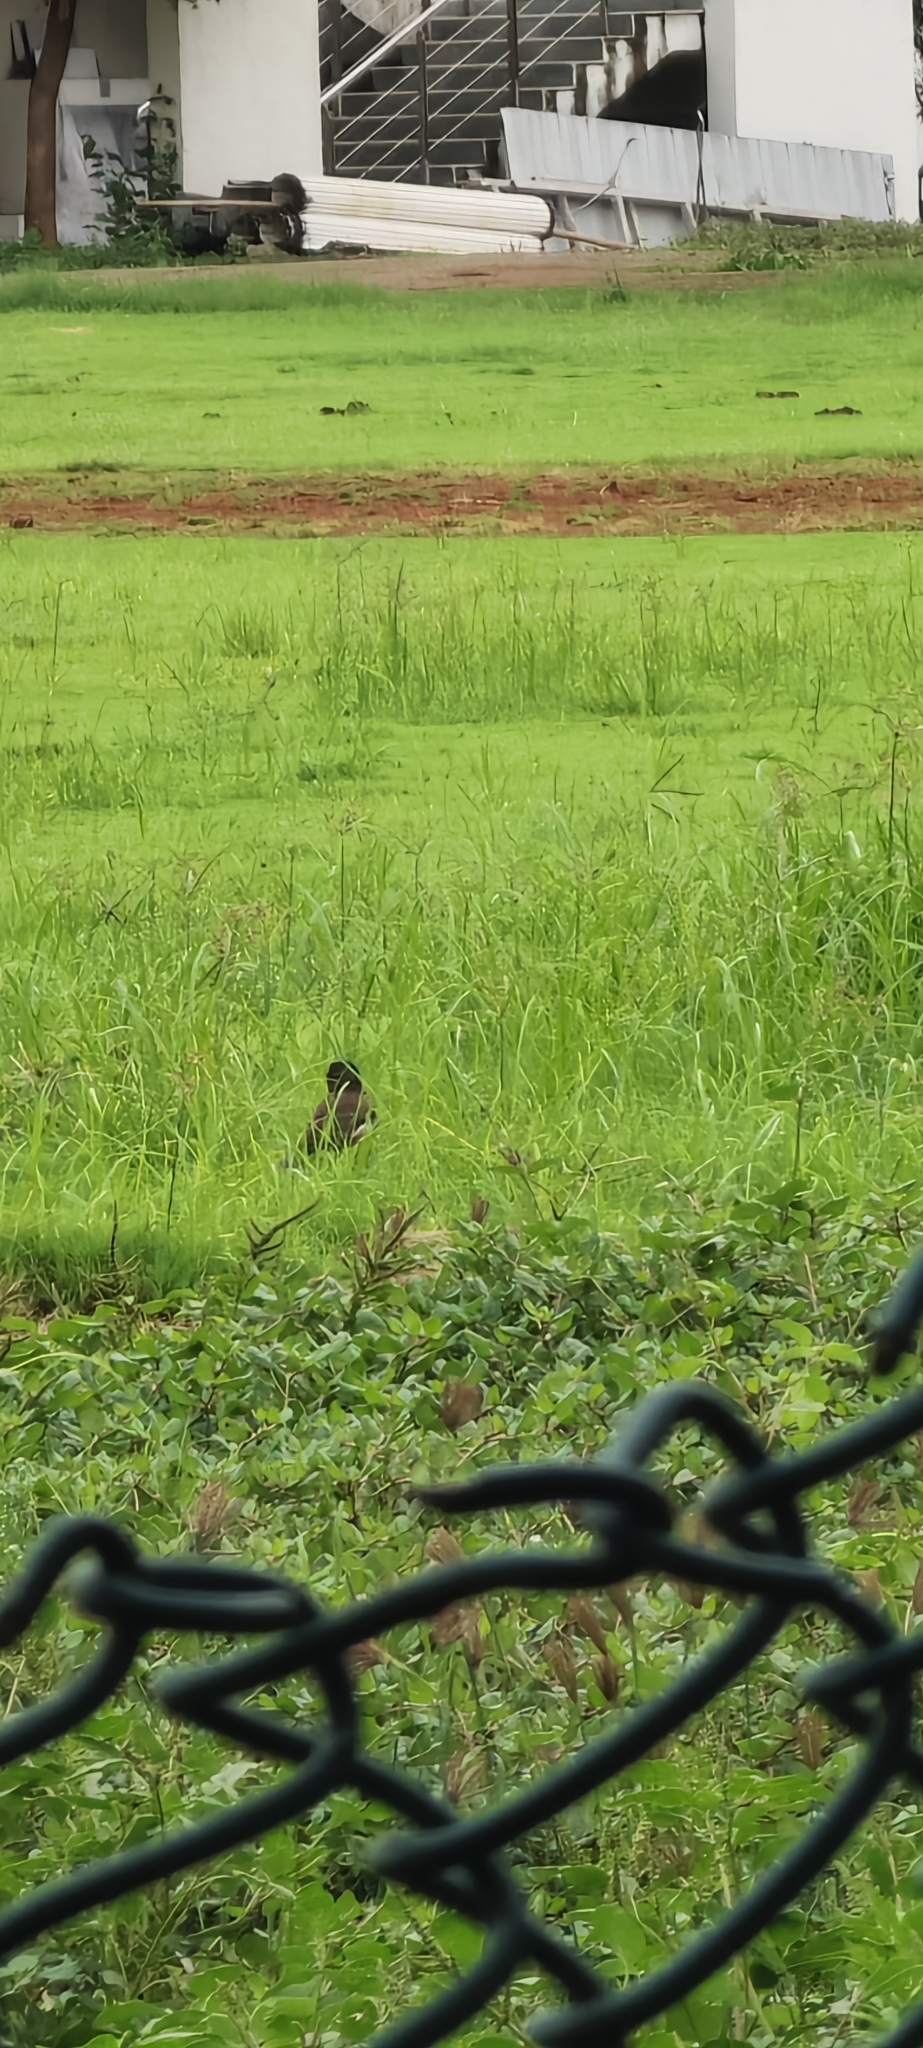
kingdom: Animalia
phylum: Chordata
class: Aves
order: Passeriformes
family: Sturnidae
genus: Acridotheres
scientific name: Acridotheres tristis
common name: Common myna
